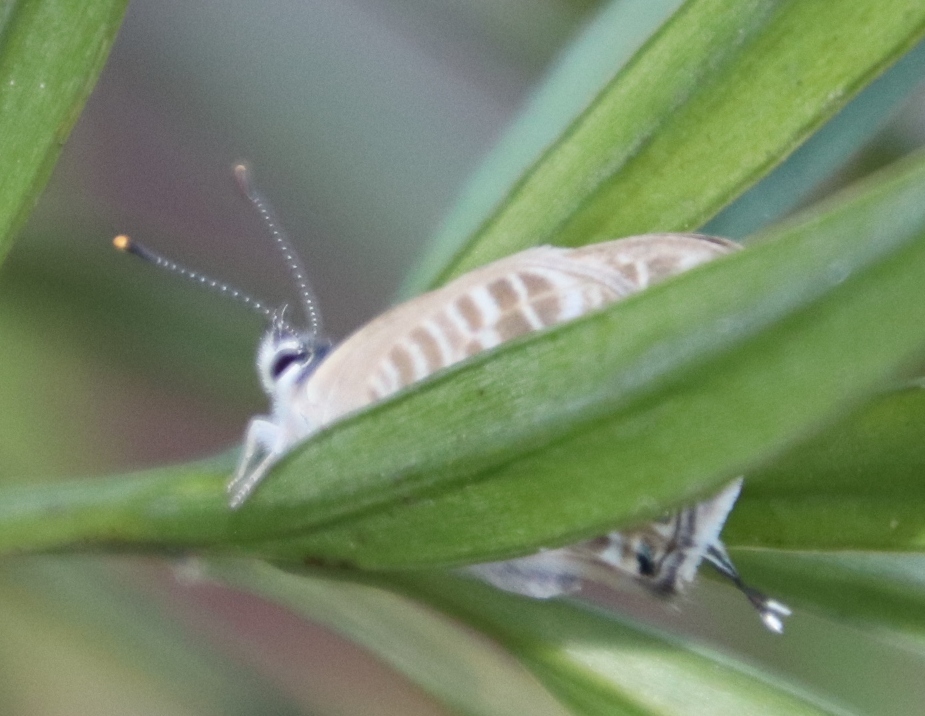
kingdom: Animalia
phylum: Arthropoda
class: Insecta
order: Lepidoptera
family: Lycaenidae
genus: Lampides
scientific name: Lampides boeticus
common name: Long-tailed blue
